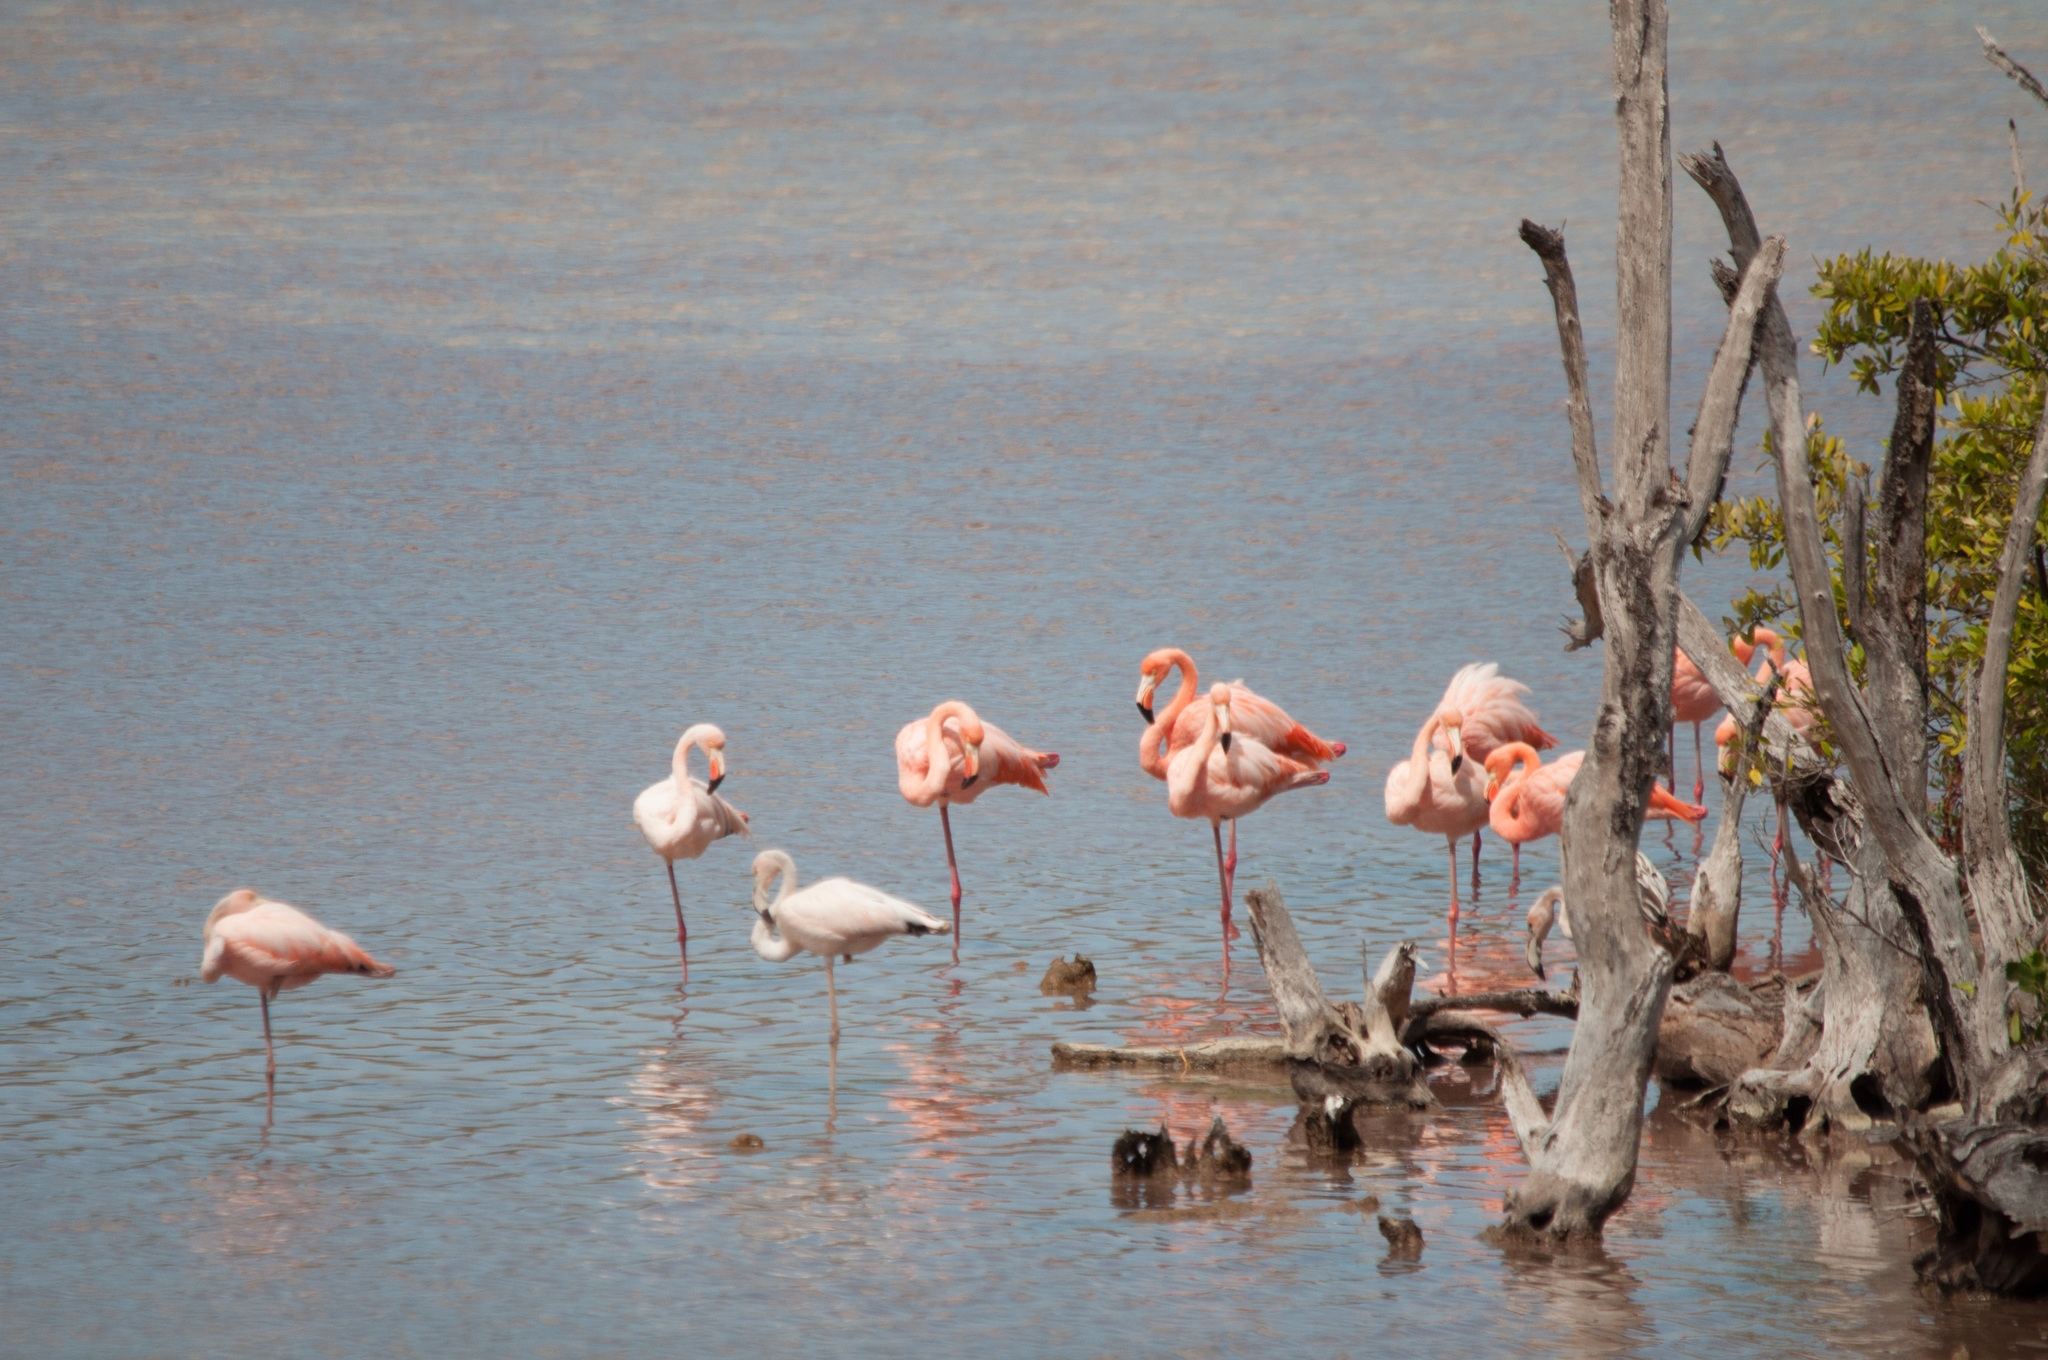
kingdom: Animalia
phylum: Chordata
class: Aves
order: Phoenicopteriformes
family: Phoenicopteridae
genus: Phoenicopterus
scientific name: Phoenicopterus ruber
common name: American flamingo
